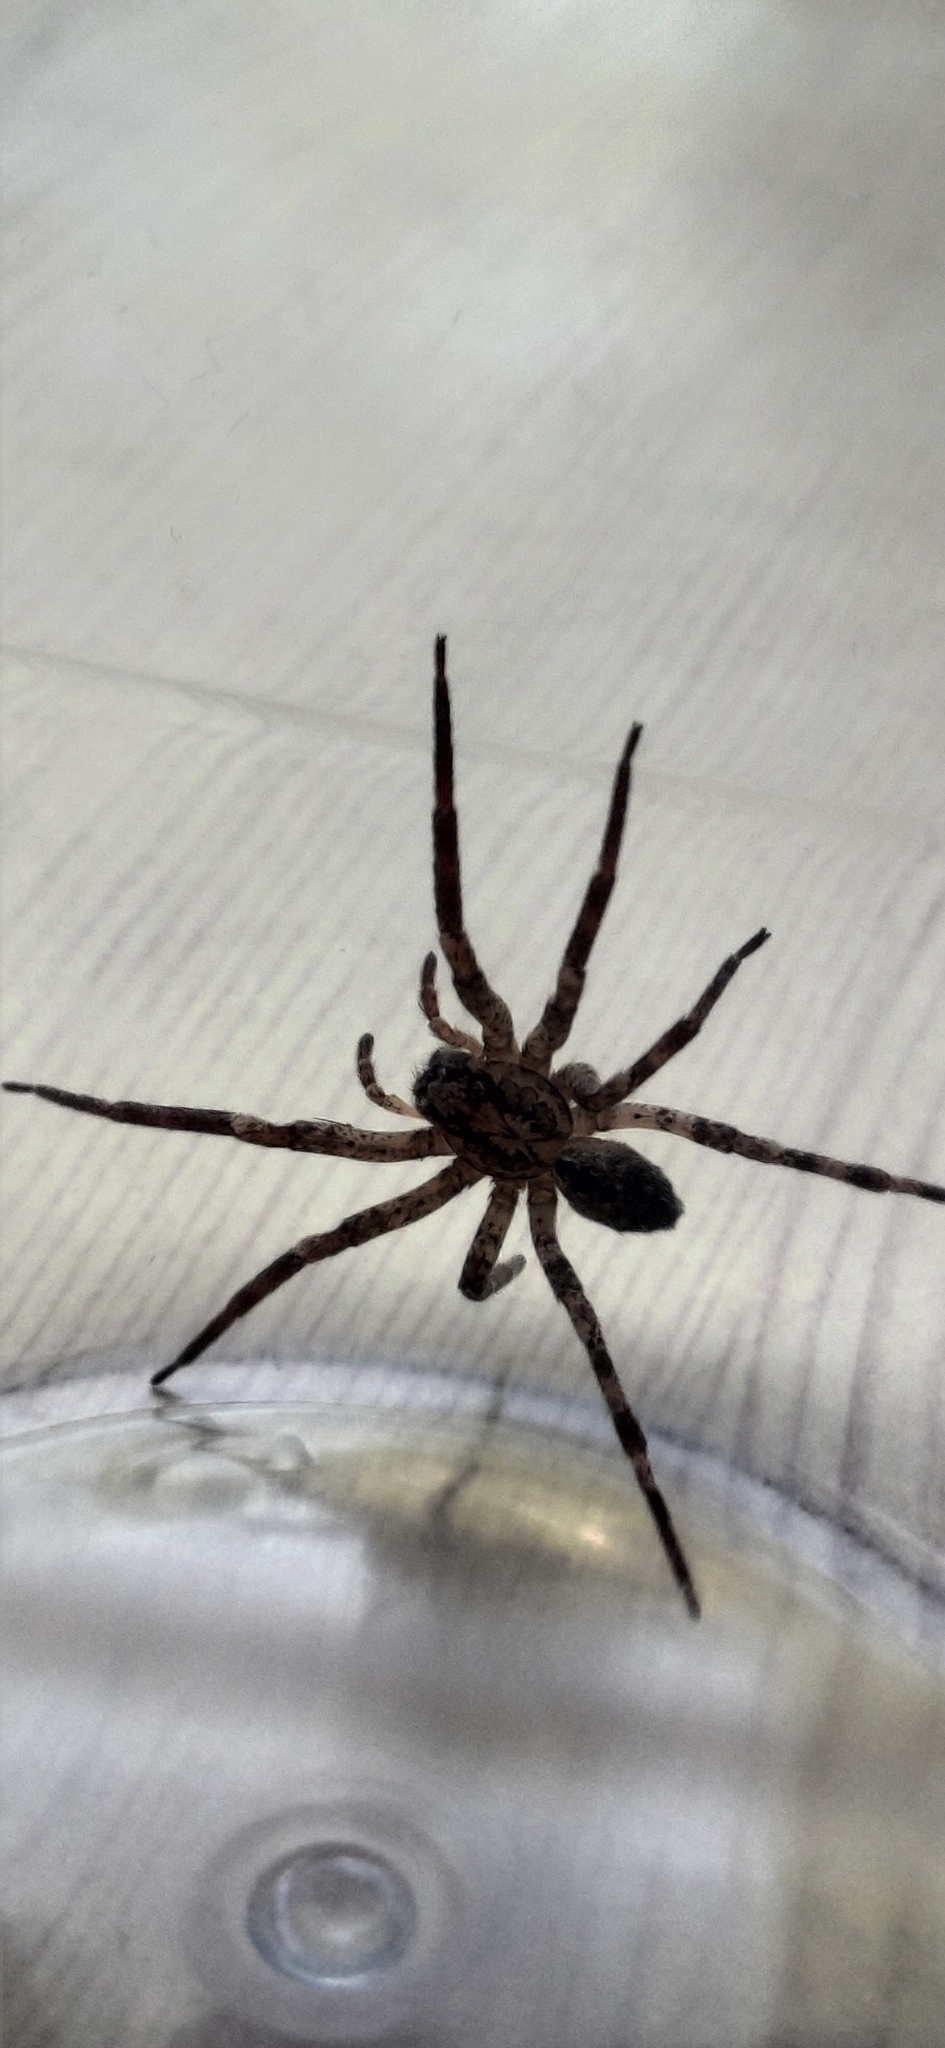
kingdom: Animalia
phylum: Arthropoda
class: Arachnida
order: Araneae
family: Zoropsidae
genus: Zoropsis
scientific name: Zoropsis spinimana
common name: Zoropsid spider
